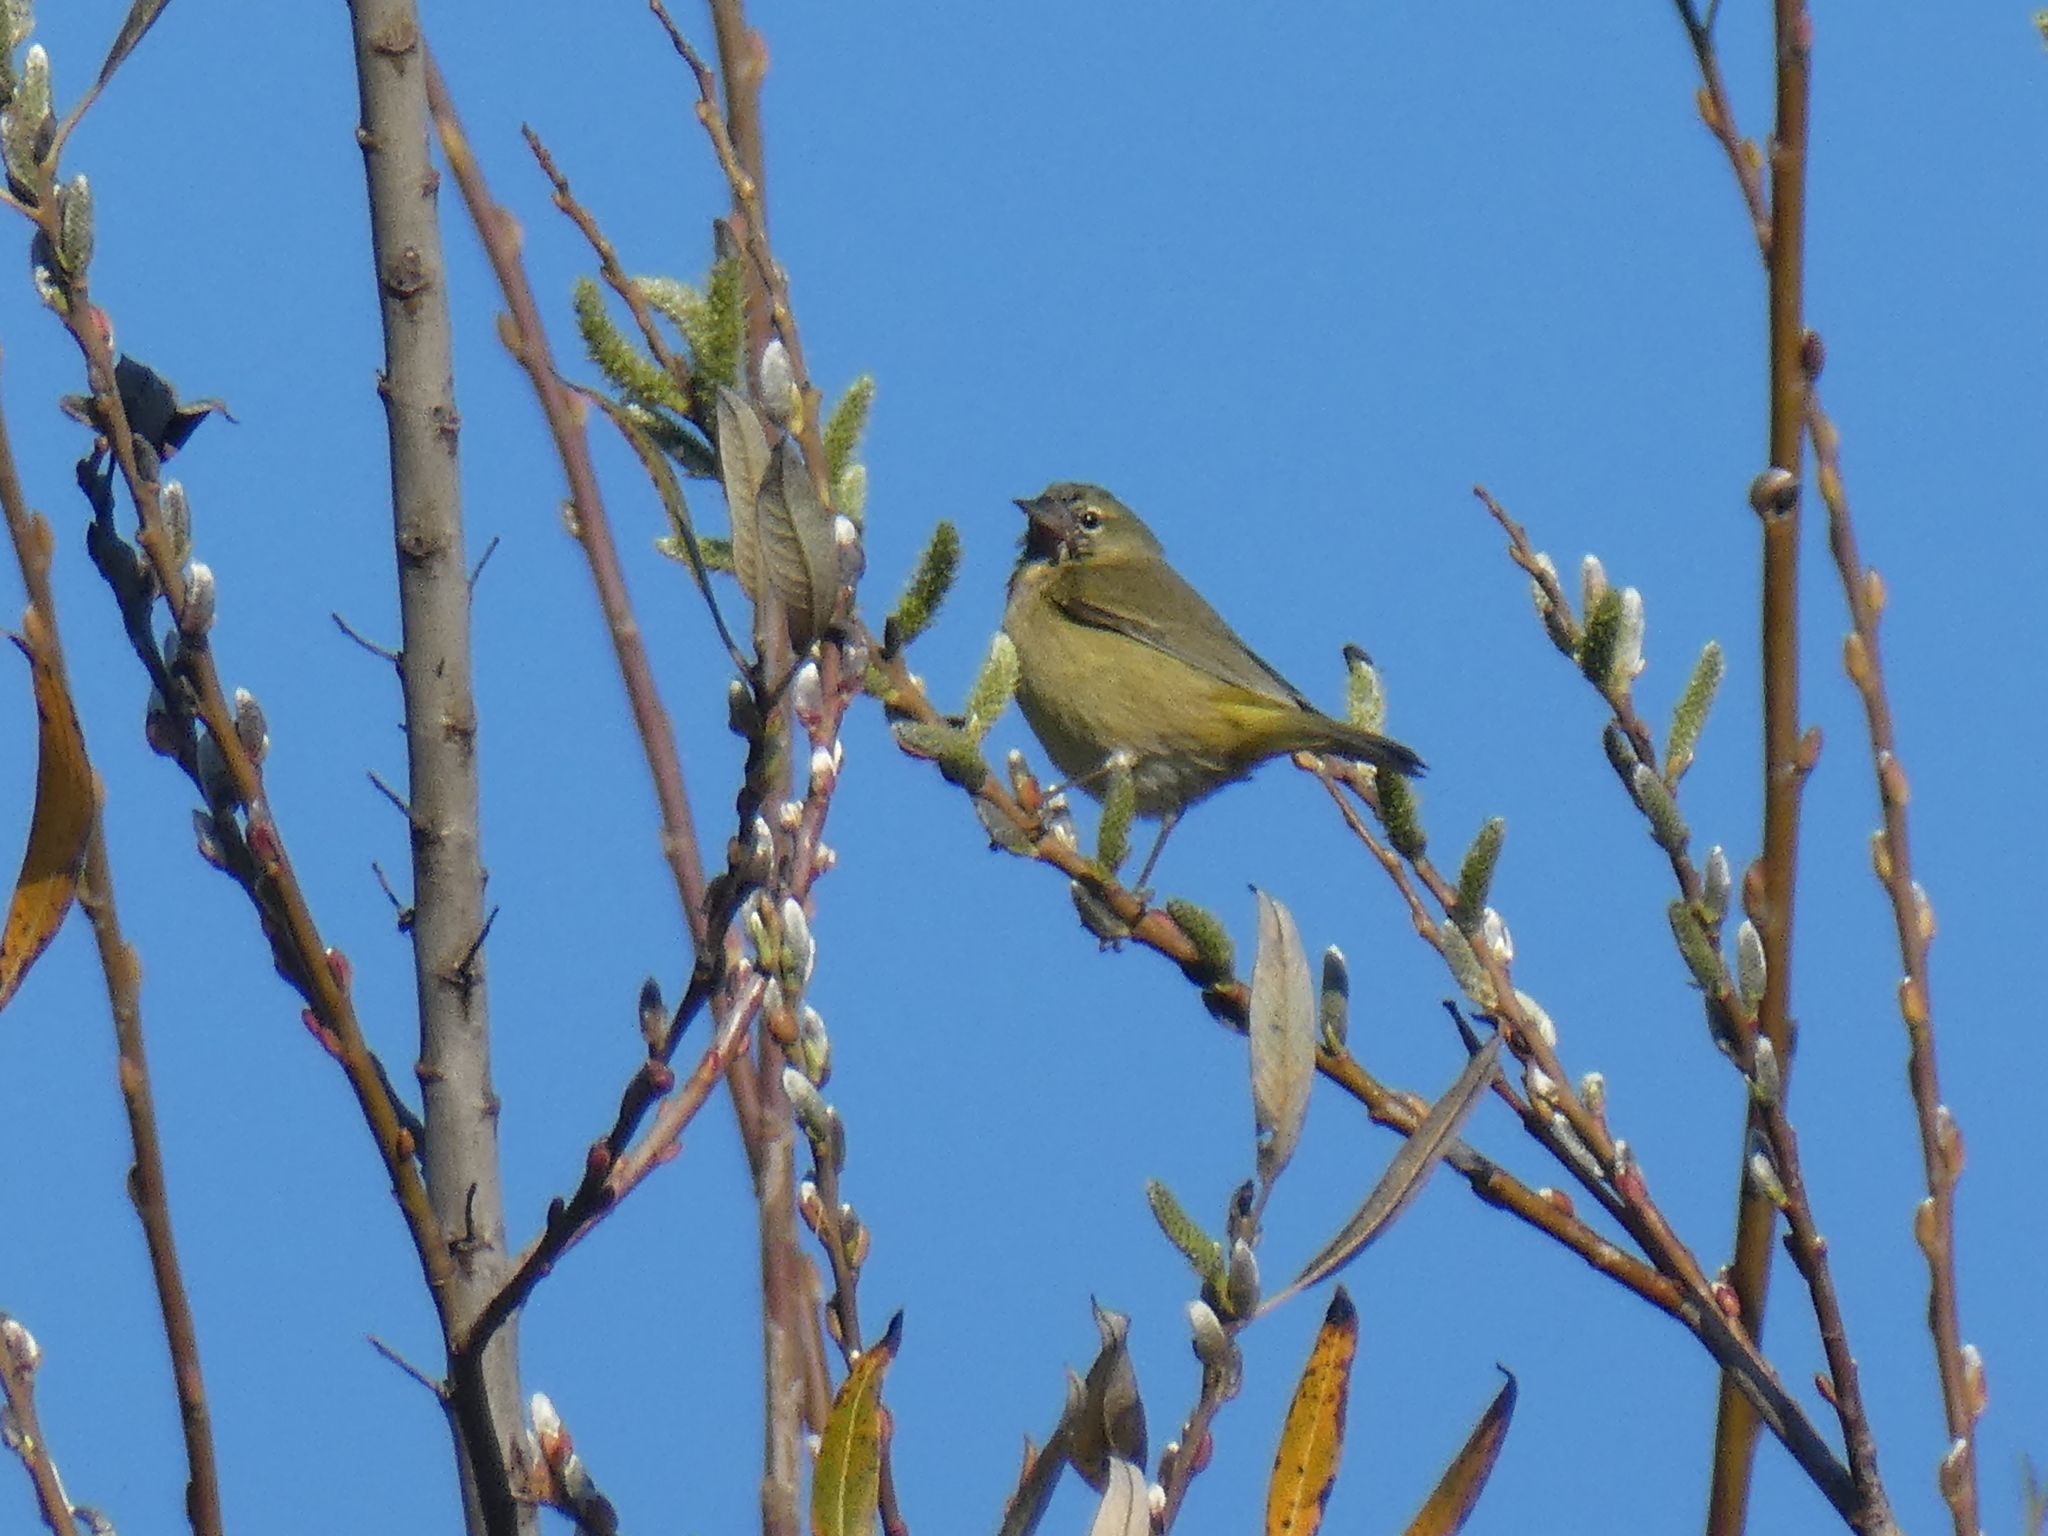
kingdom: Animalia
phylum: Chordata
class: Aves
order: Passeriformes
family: Parulidae
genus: Leiothlypis
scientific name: Leiothlypis celata
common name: Orange-crowned warbler
